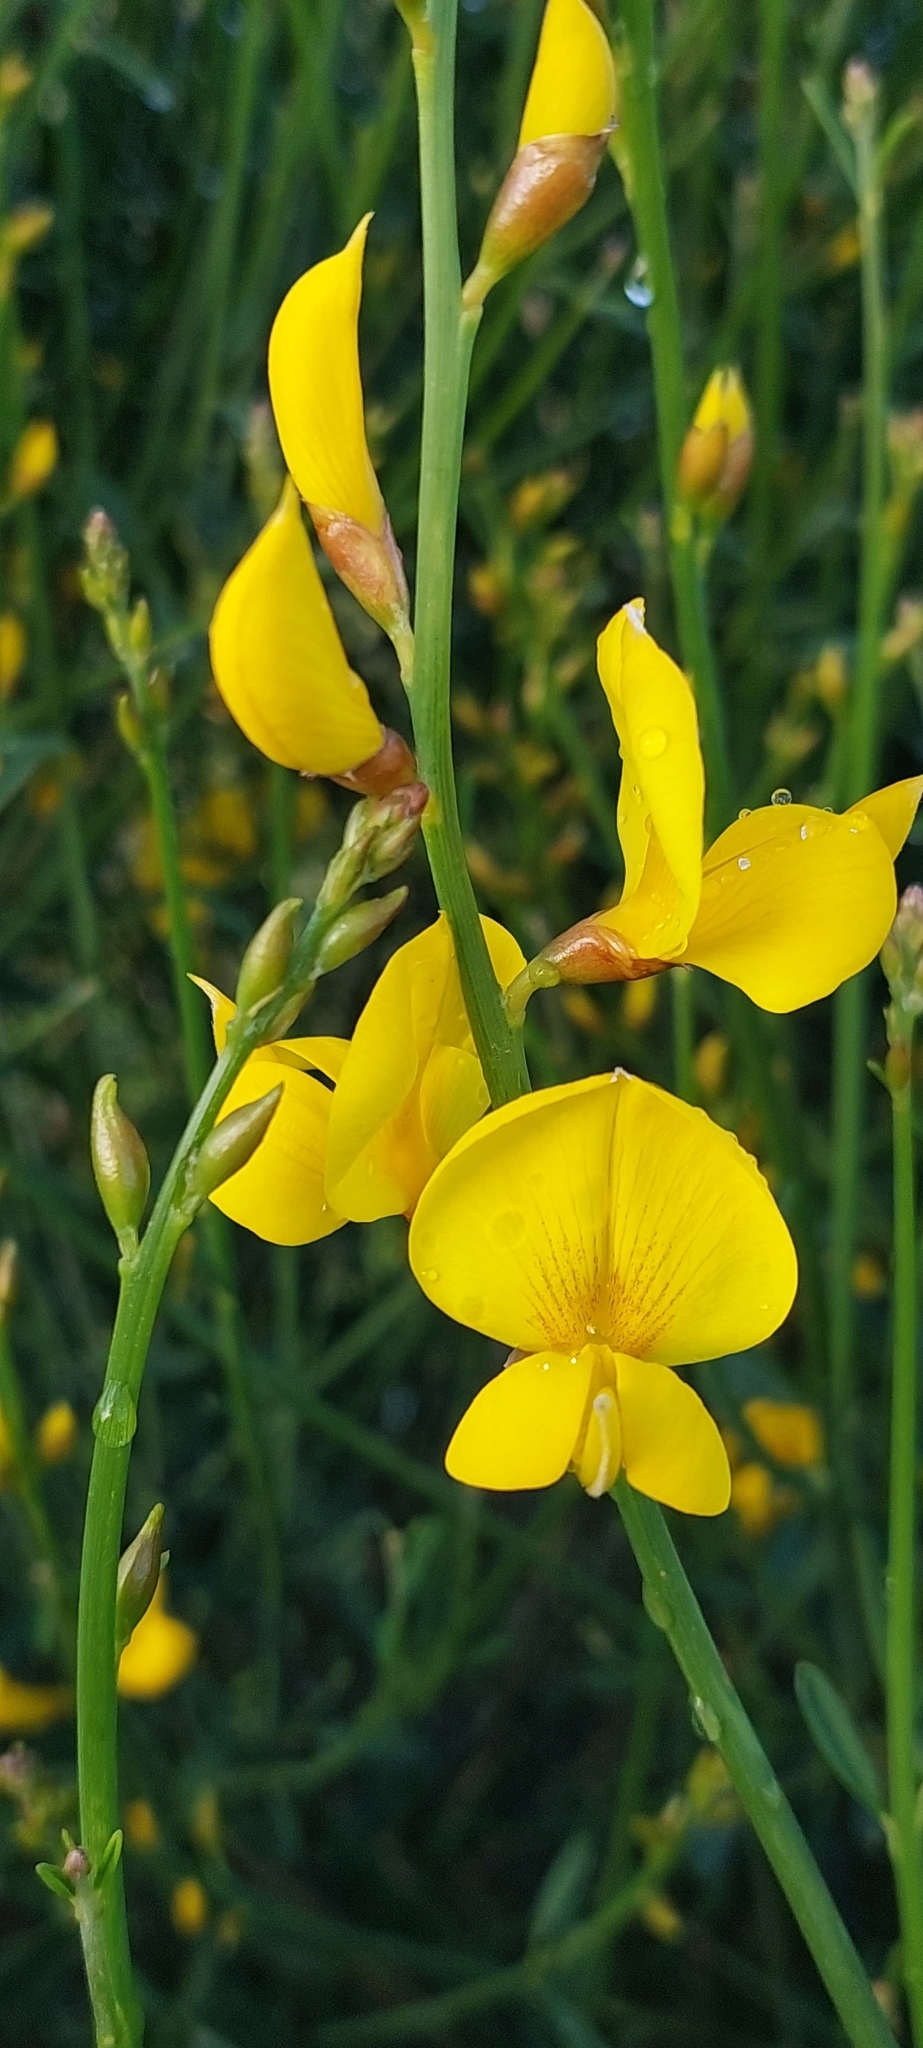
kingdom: Plantae
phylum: Tracheophyta
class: Magnoliopsida
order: Fabales
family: Fabaceae
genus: Spartium
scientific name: Spartium junceum
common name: Spanish broom
